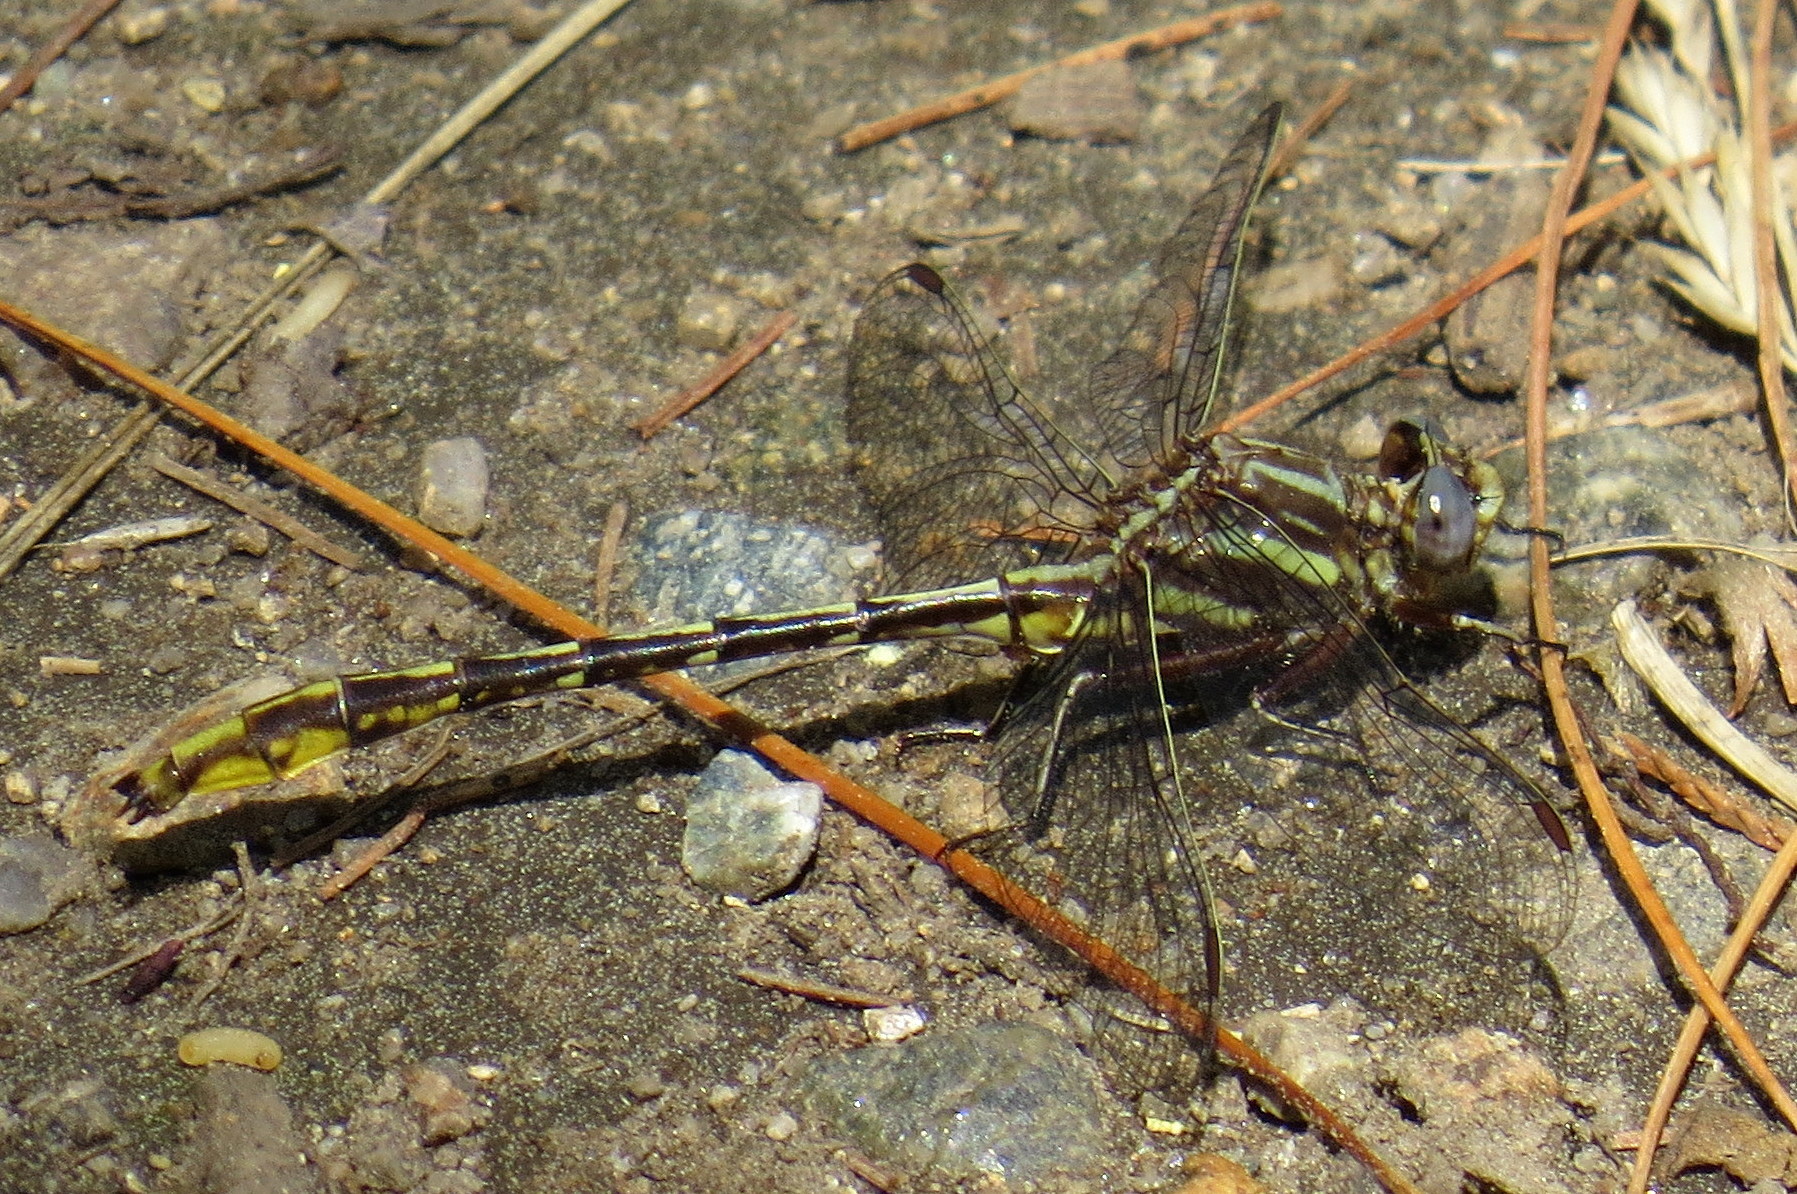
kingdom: Animalia
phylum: Arthropoda
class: Insecta
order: Odonata
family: Gomphidae
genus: Phanogomphus
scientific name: Phanogomphus exilis
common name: Lancet clubtail
